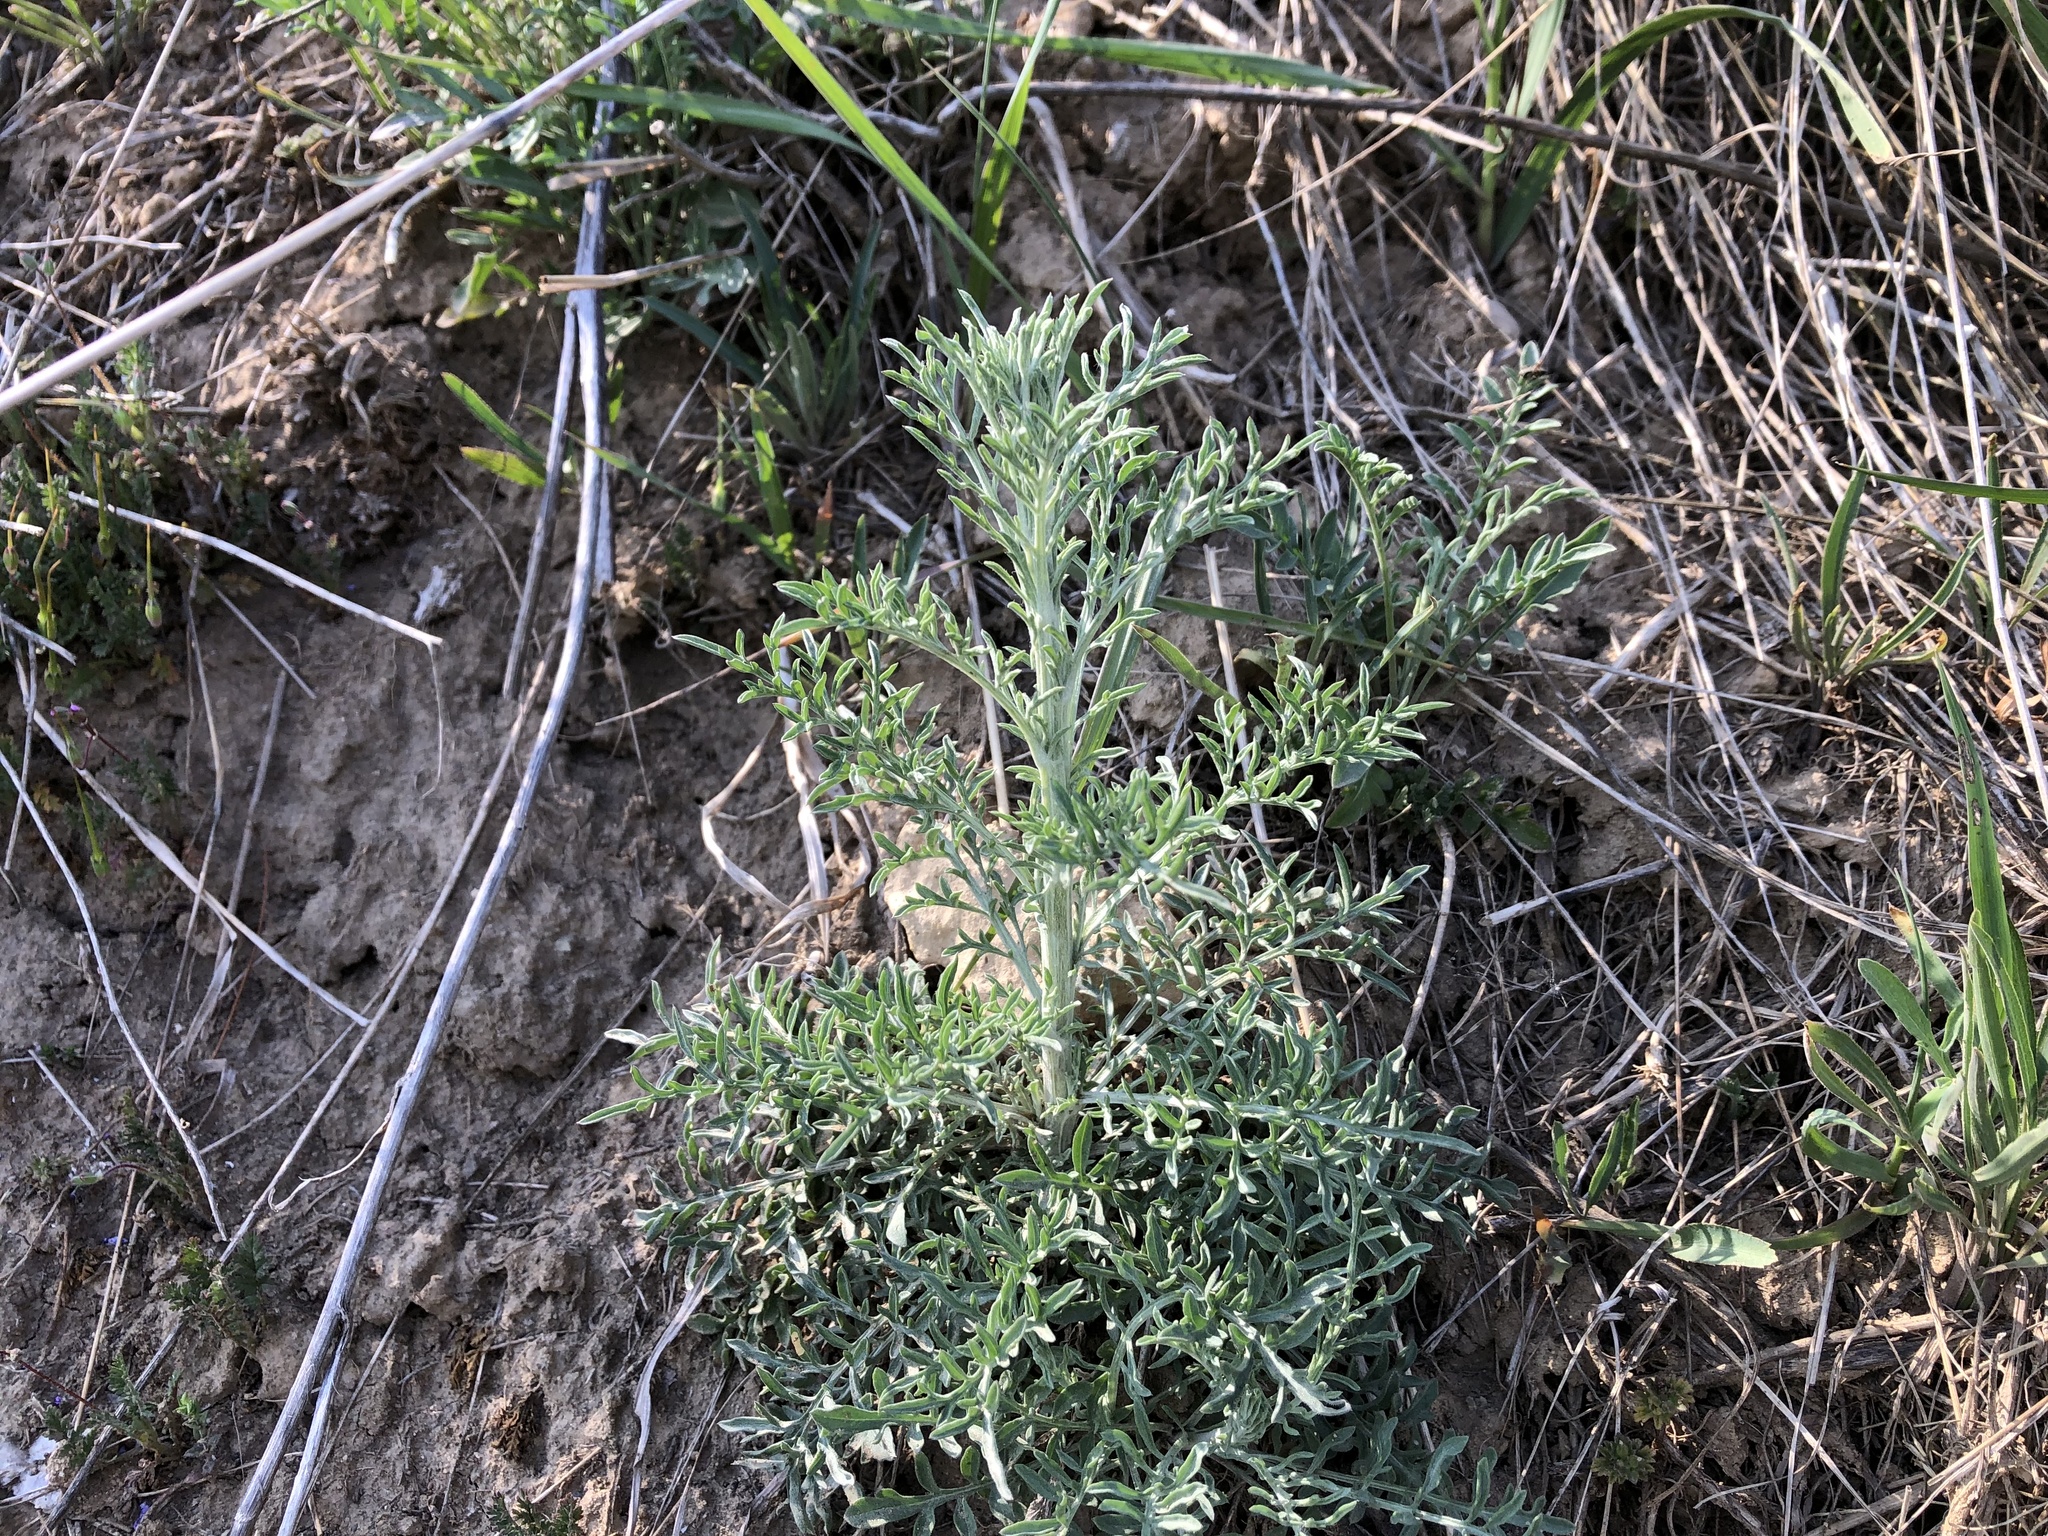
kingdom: Plantae
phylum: Tracheophyta
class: Magnoliopsida
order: Asterales
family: Asteraceae
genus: Centaurea
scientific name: Centaurea stoebe
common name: Spotted knapweed
